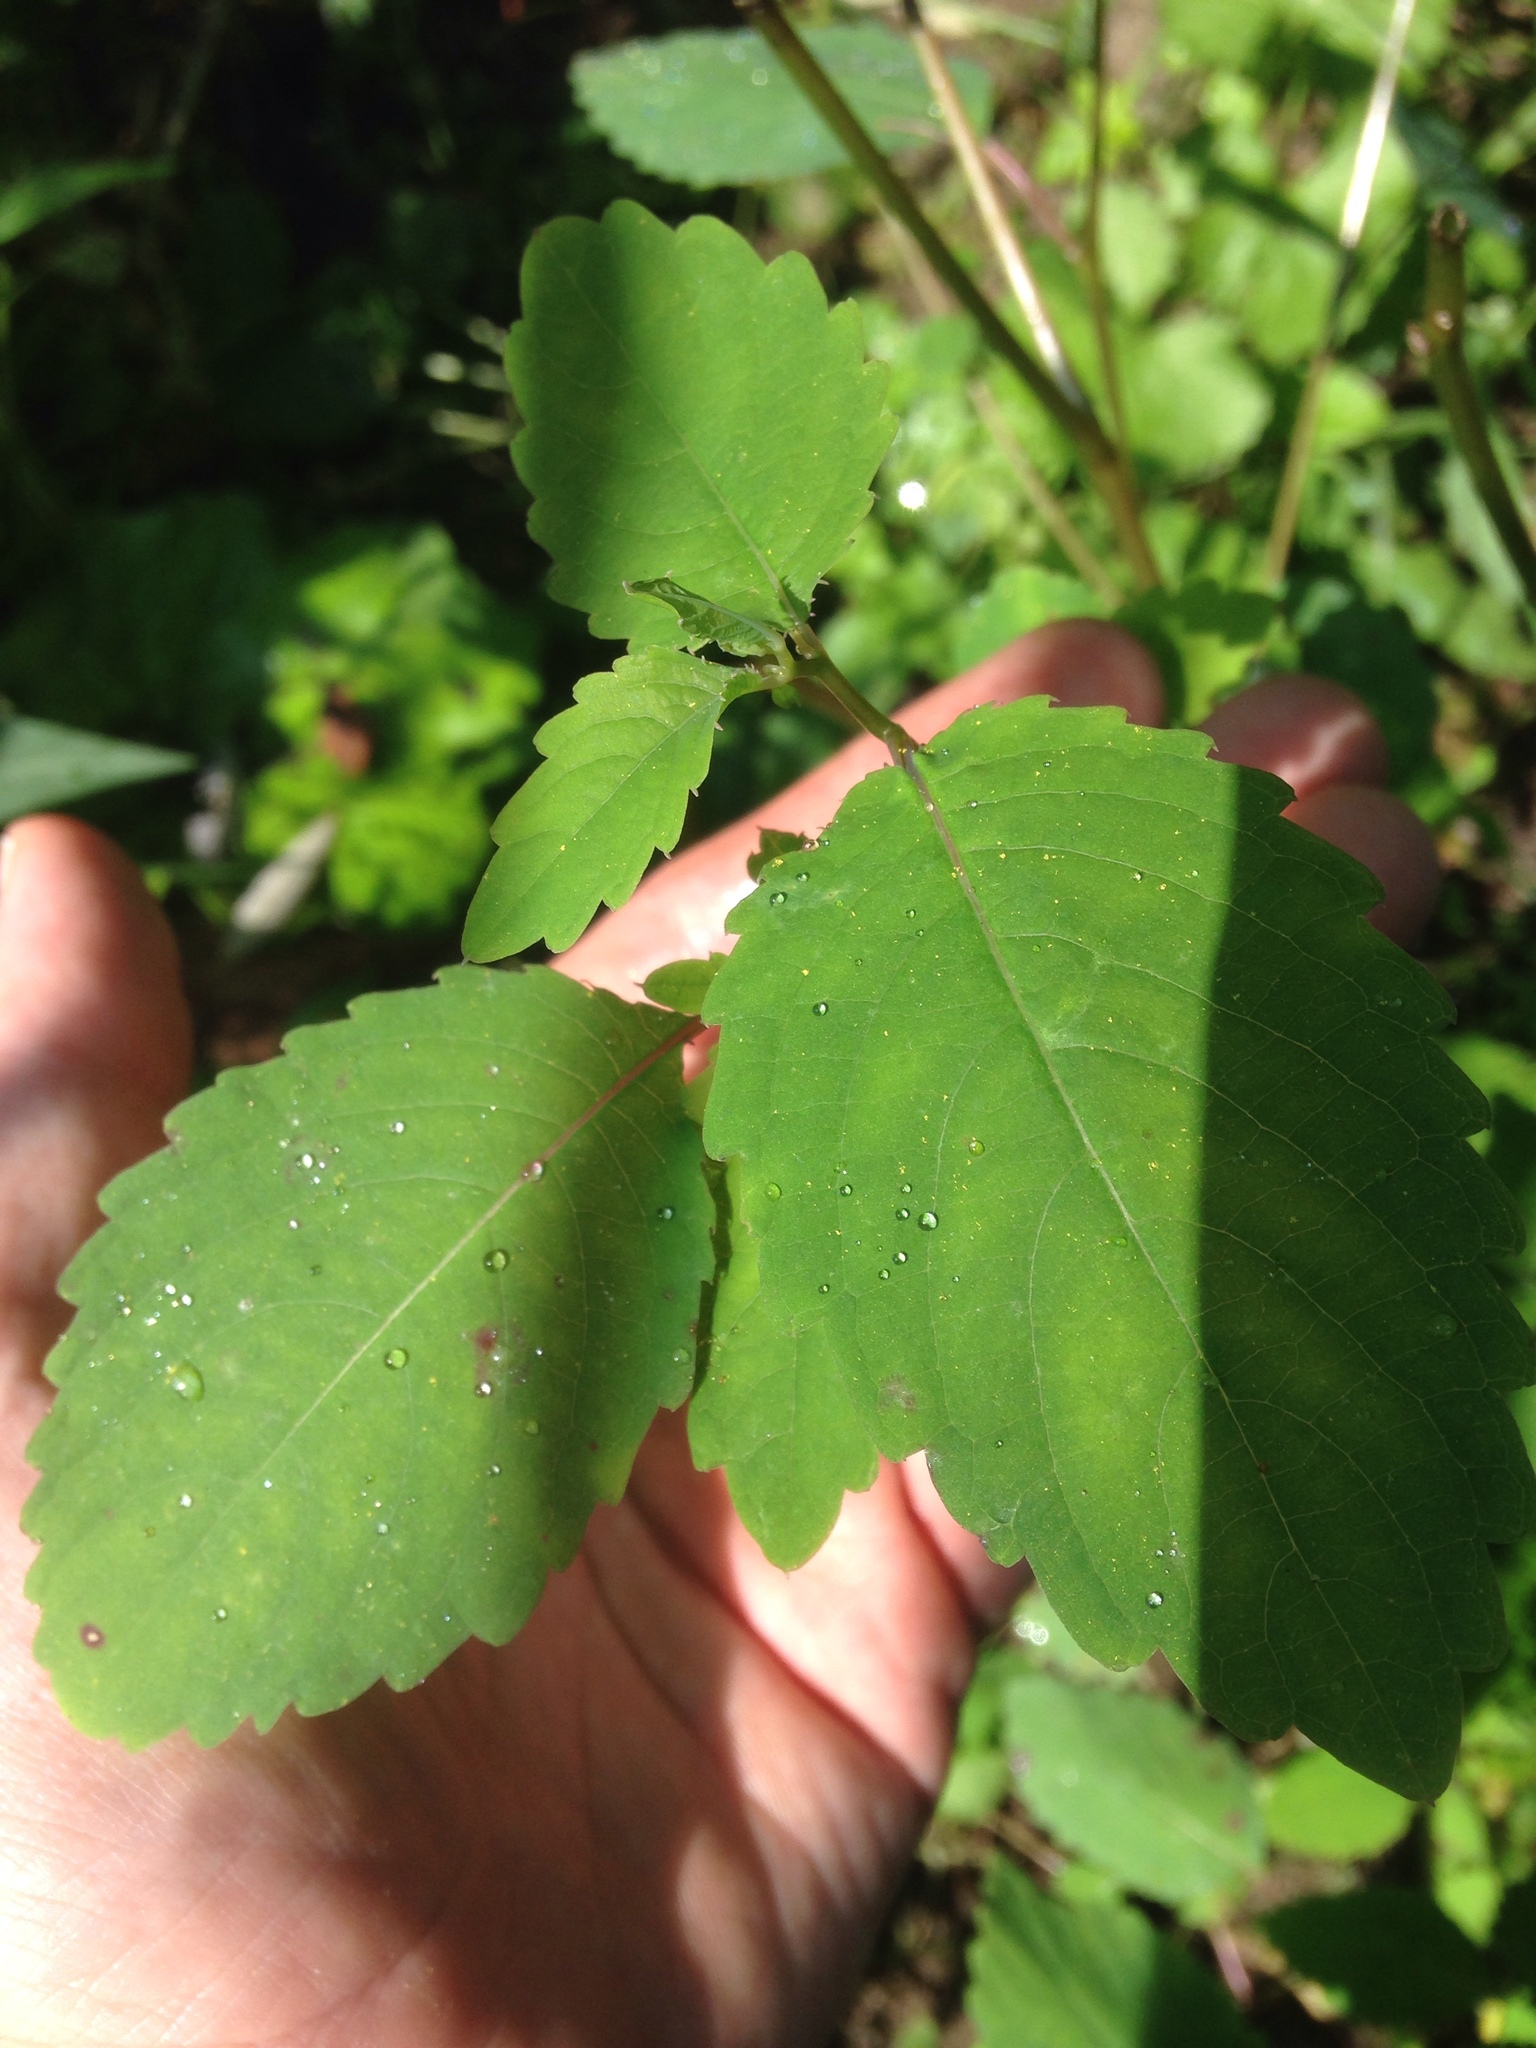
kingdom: Plantae
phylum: Tracheophyta
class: Magnoliopsida
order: Ericales
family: Balsaminaceae
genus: Impatiens
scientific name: Impatiens pallida
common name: Pale snapweed
